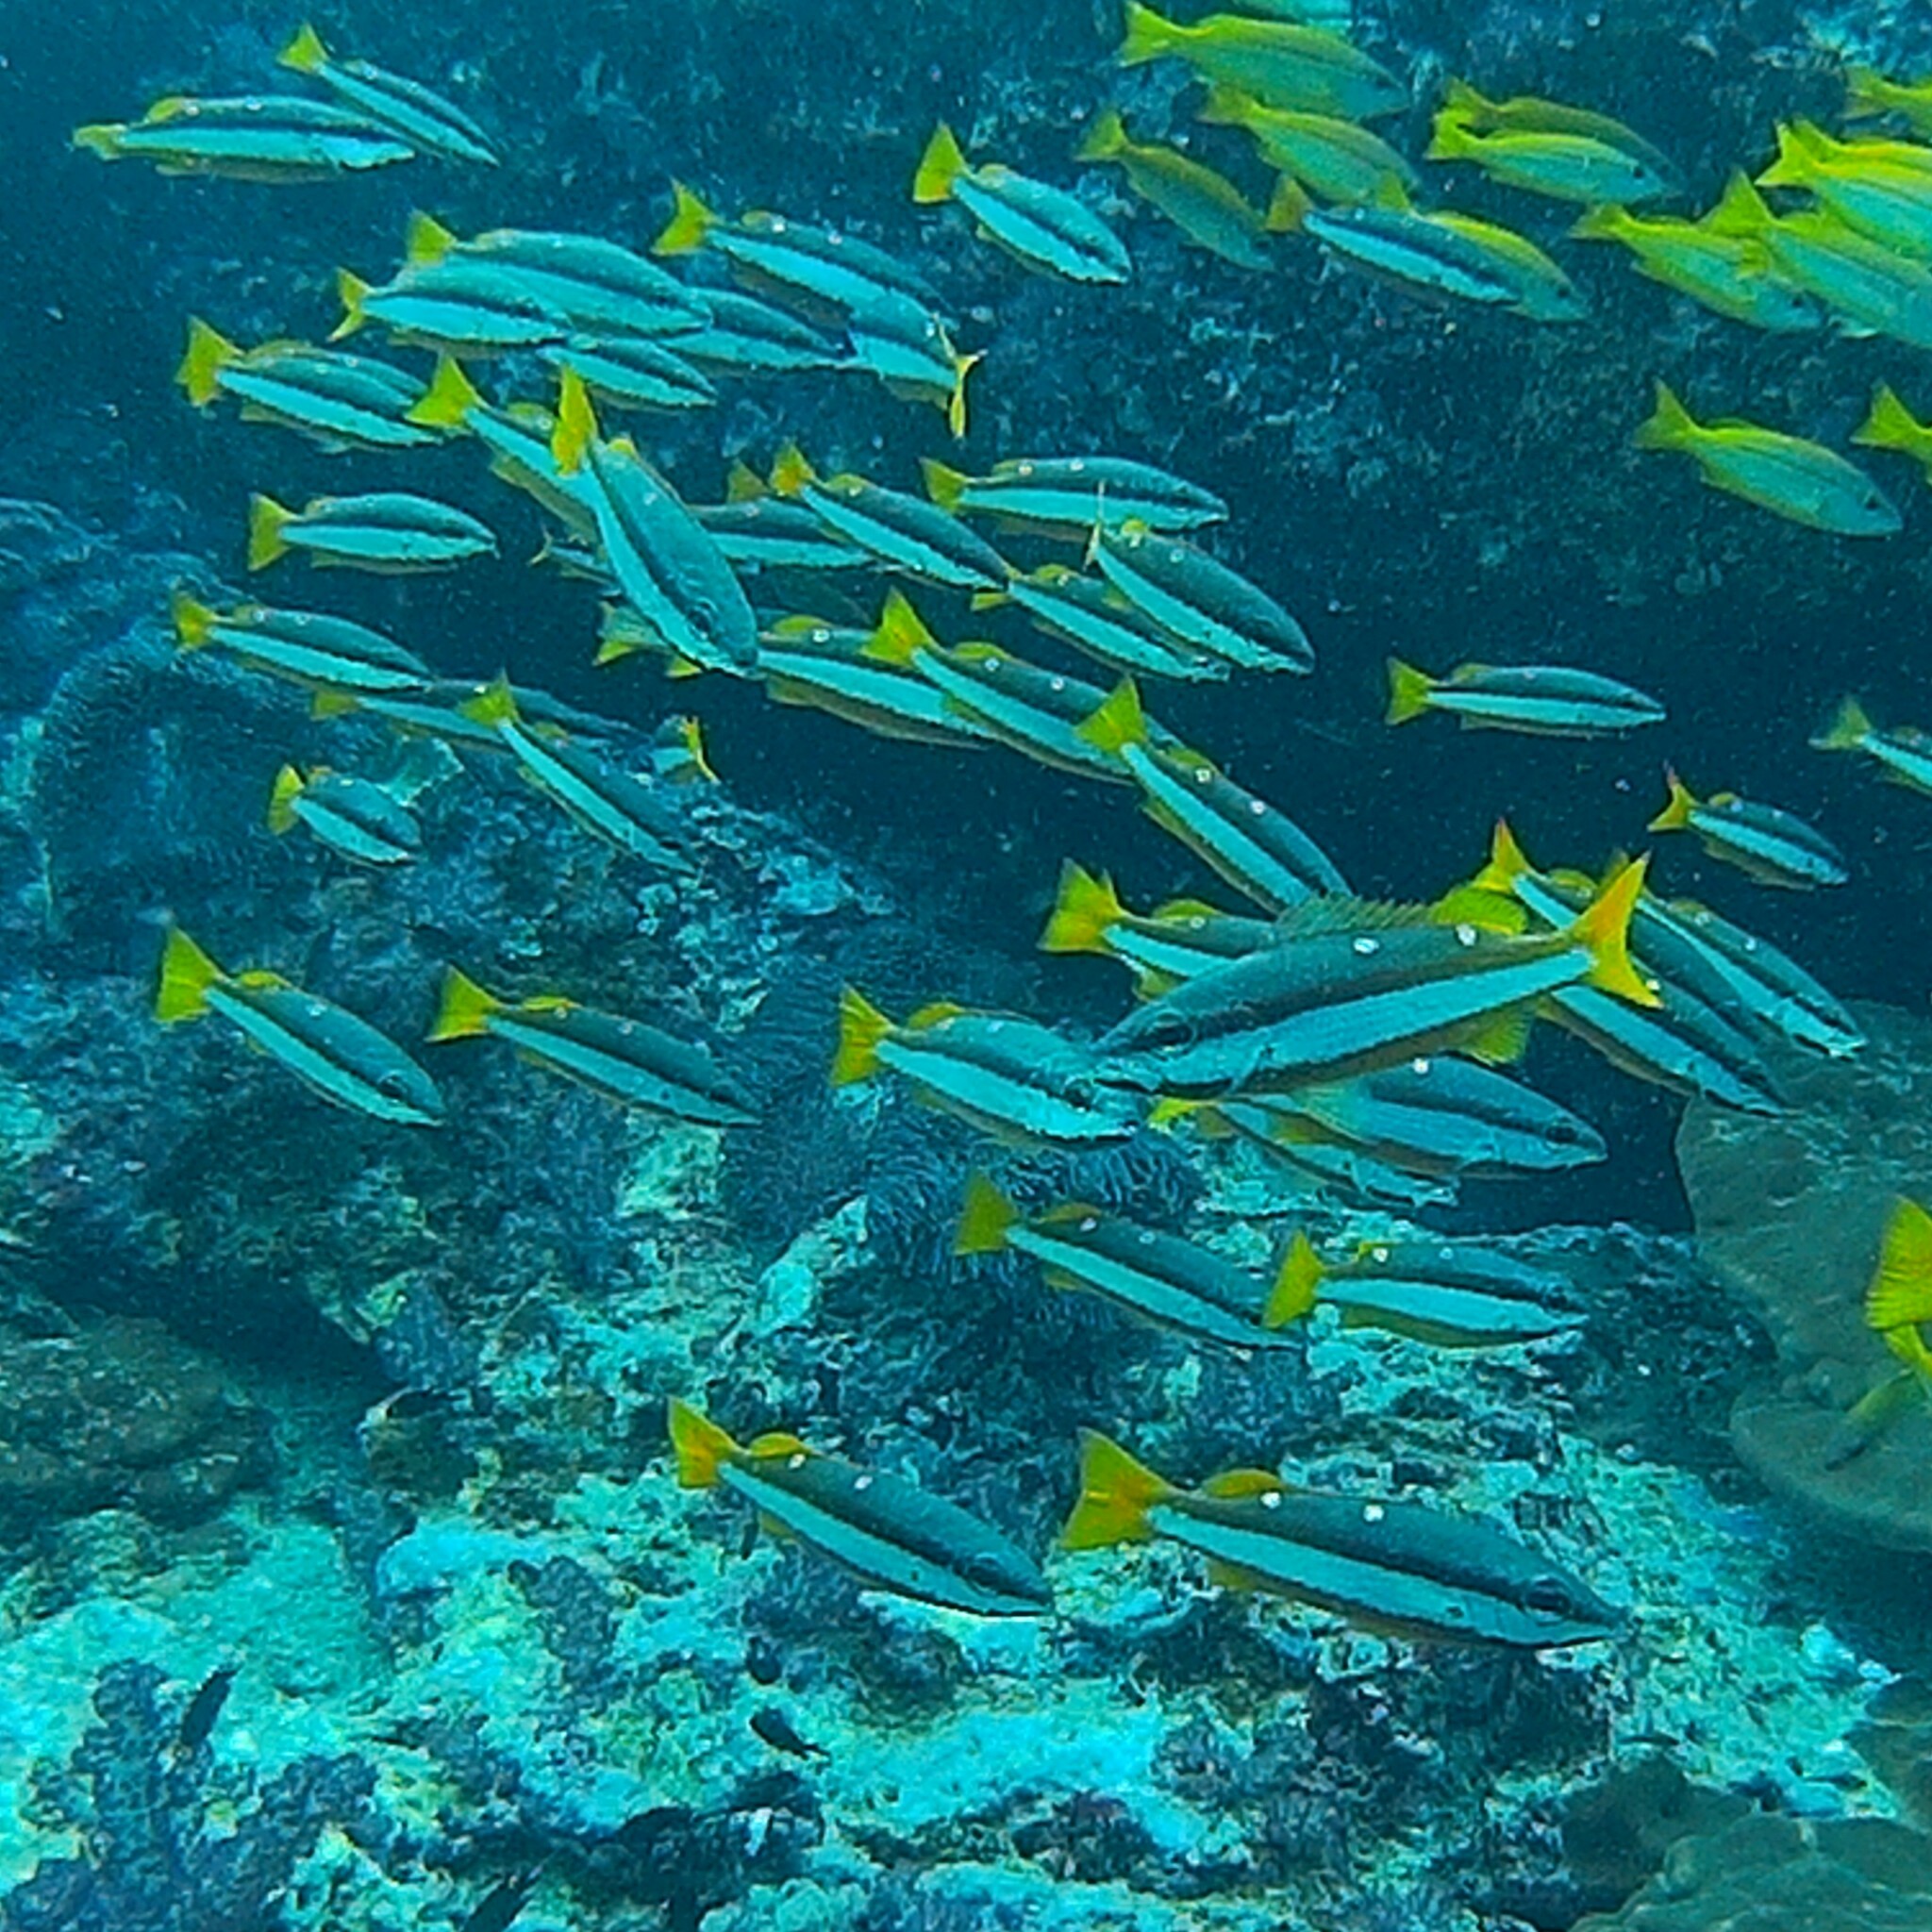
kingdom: Animalia
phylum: Chordata
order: Perciformes
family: Lutjanidae
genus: Lutjanus
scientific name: Lutjanus biguttatus
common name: Two-spot snapper
